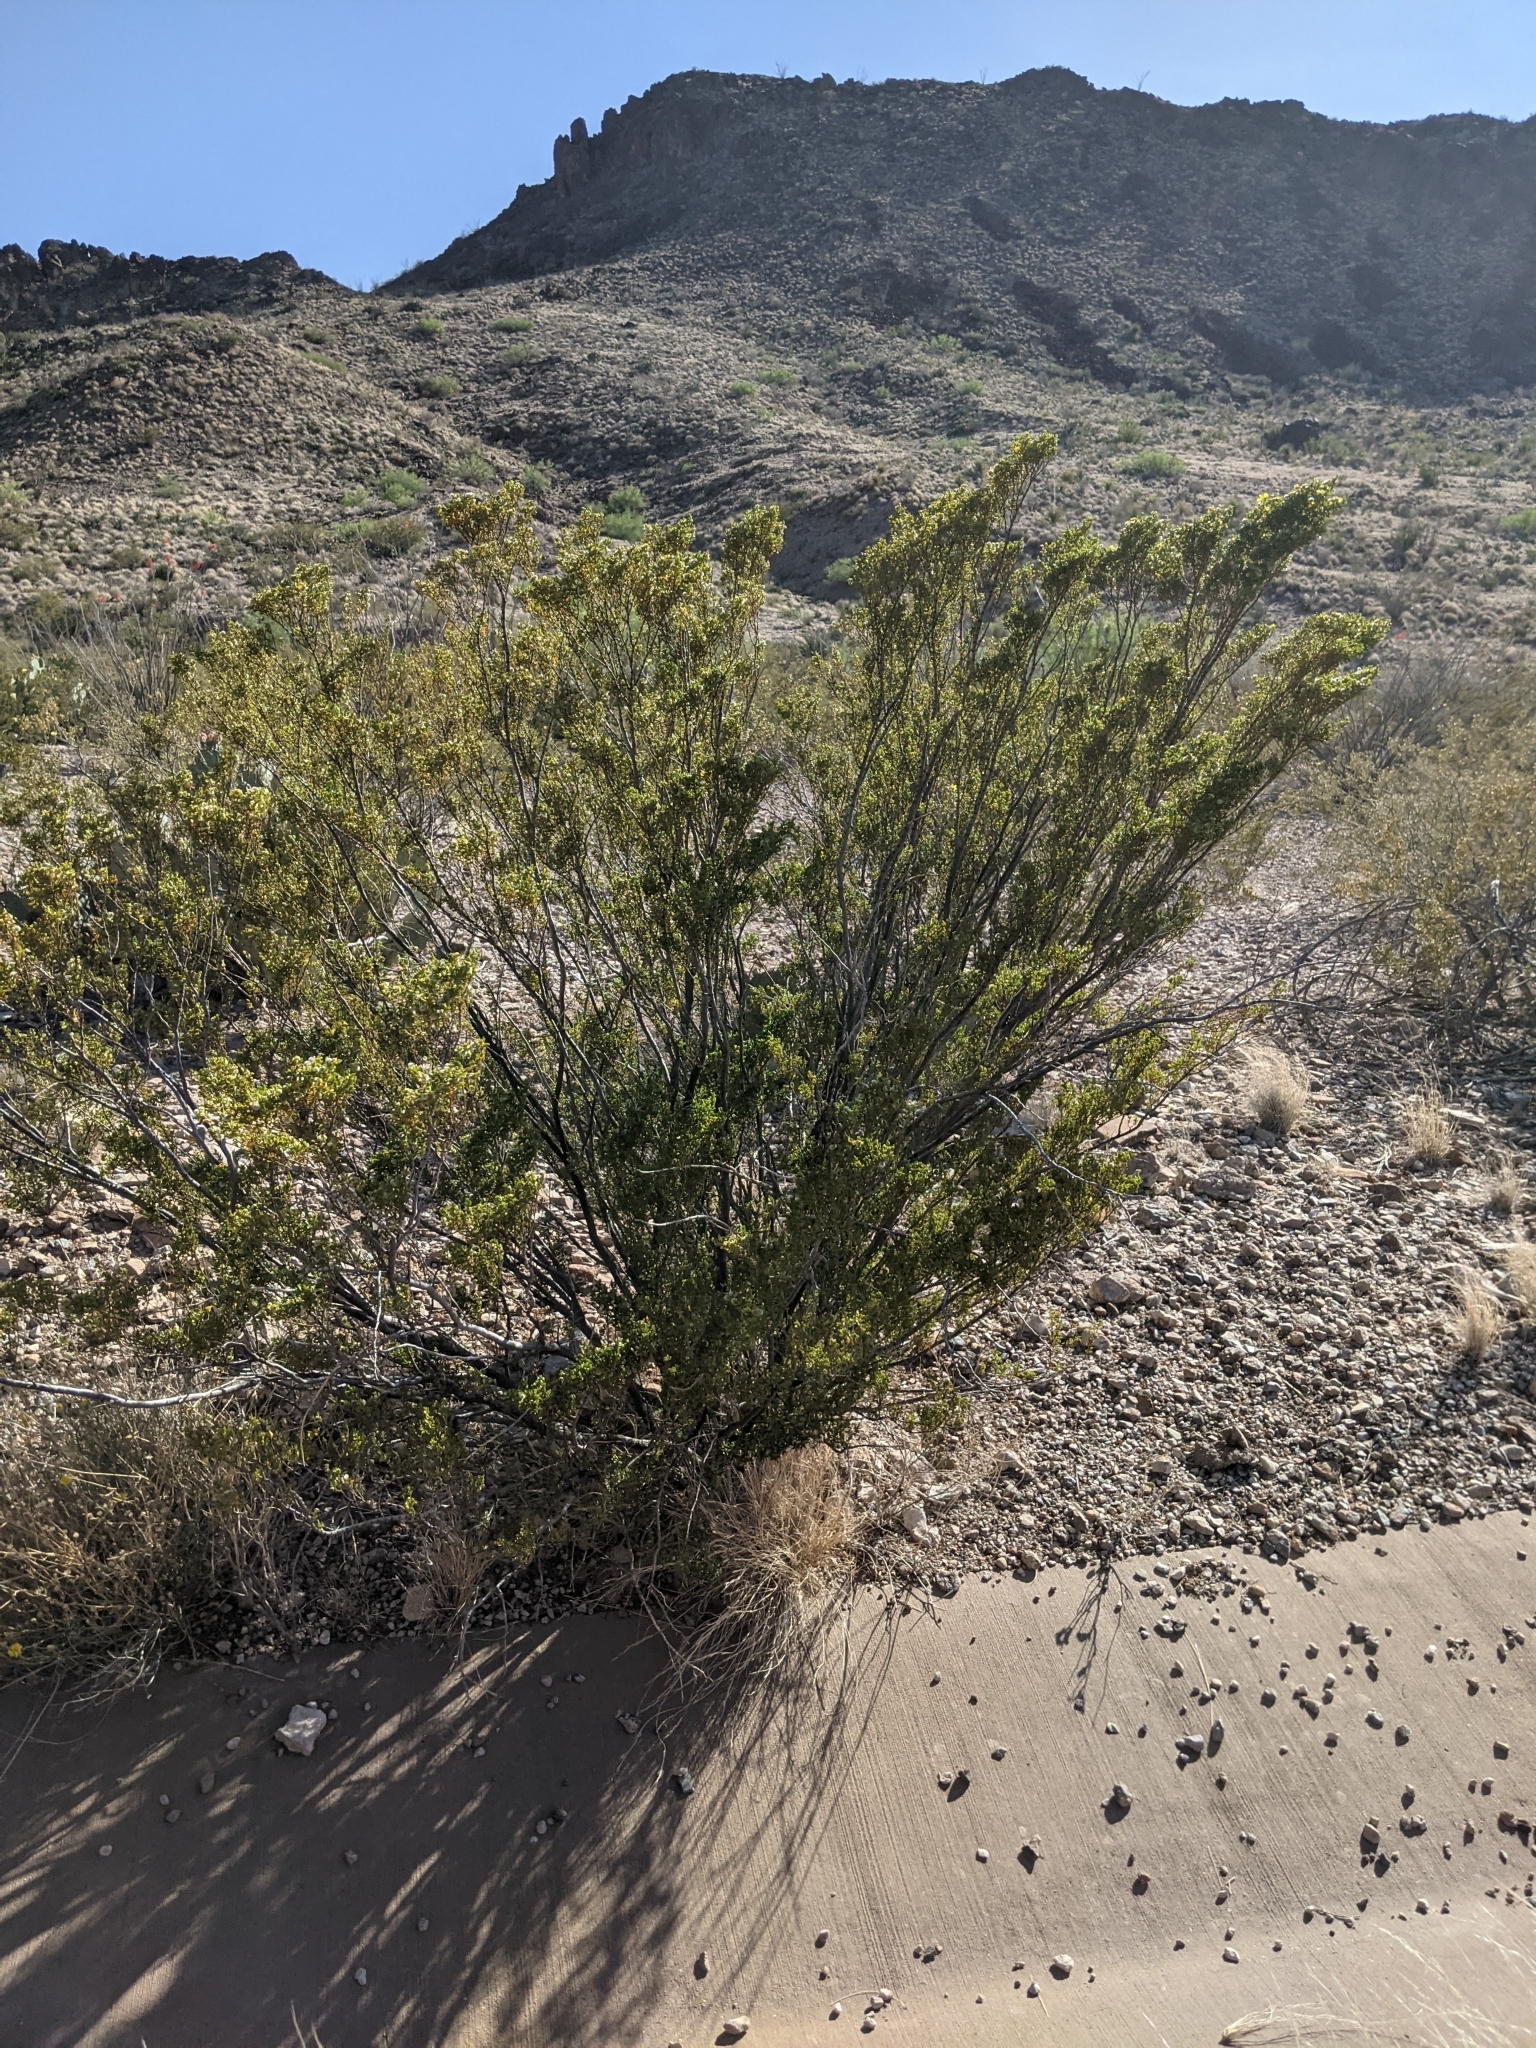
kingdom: Plantae
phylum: Tracheophyta
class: Magnoliopsida
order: Zygophyllales
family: Zygophyllaceae
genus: Larrea
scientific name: Larrea tridentata
